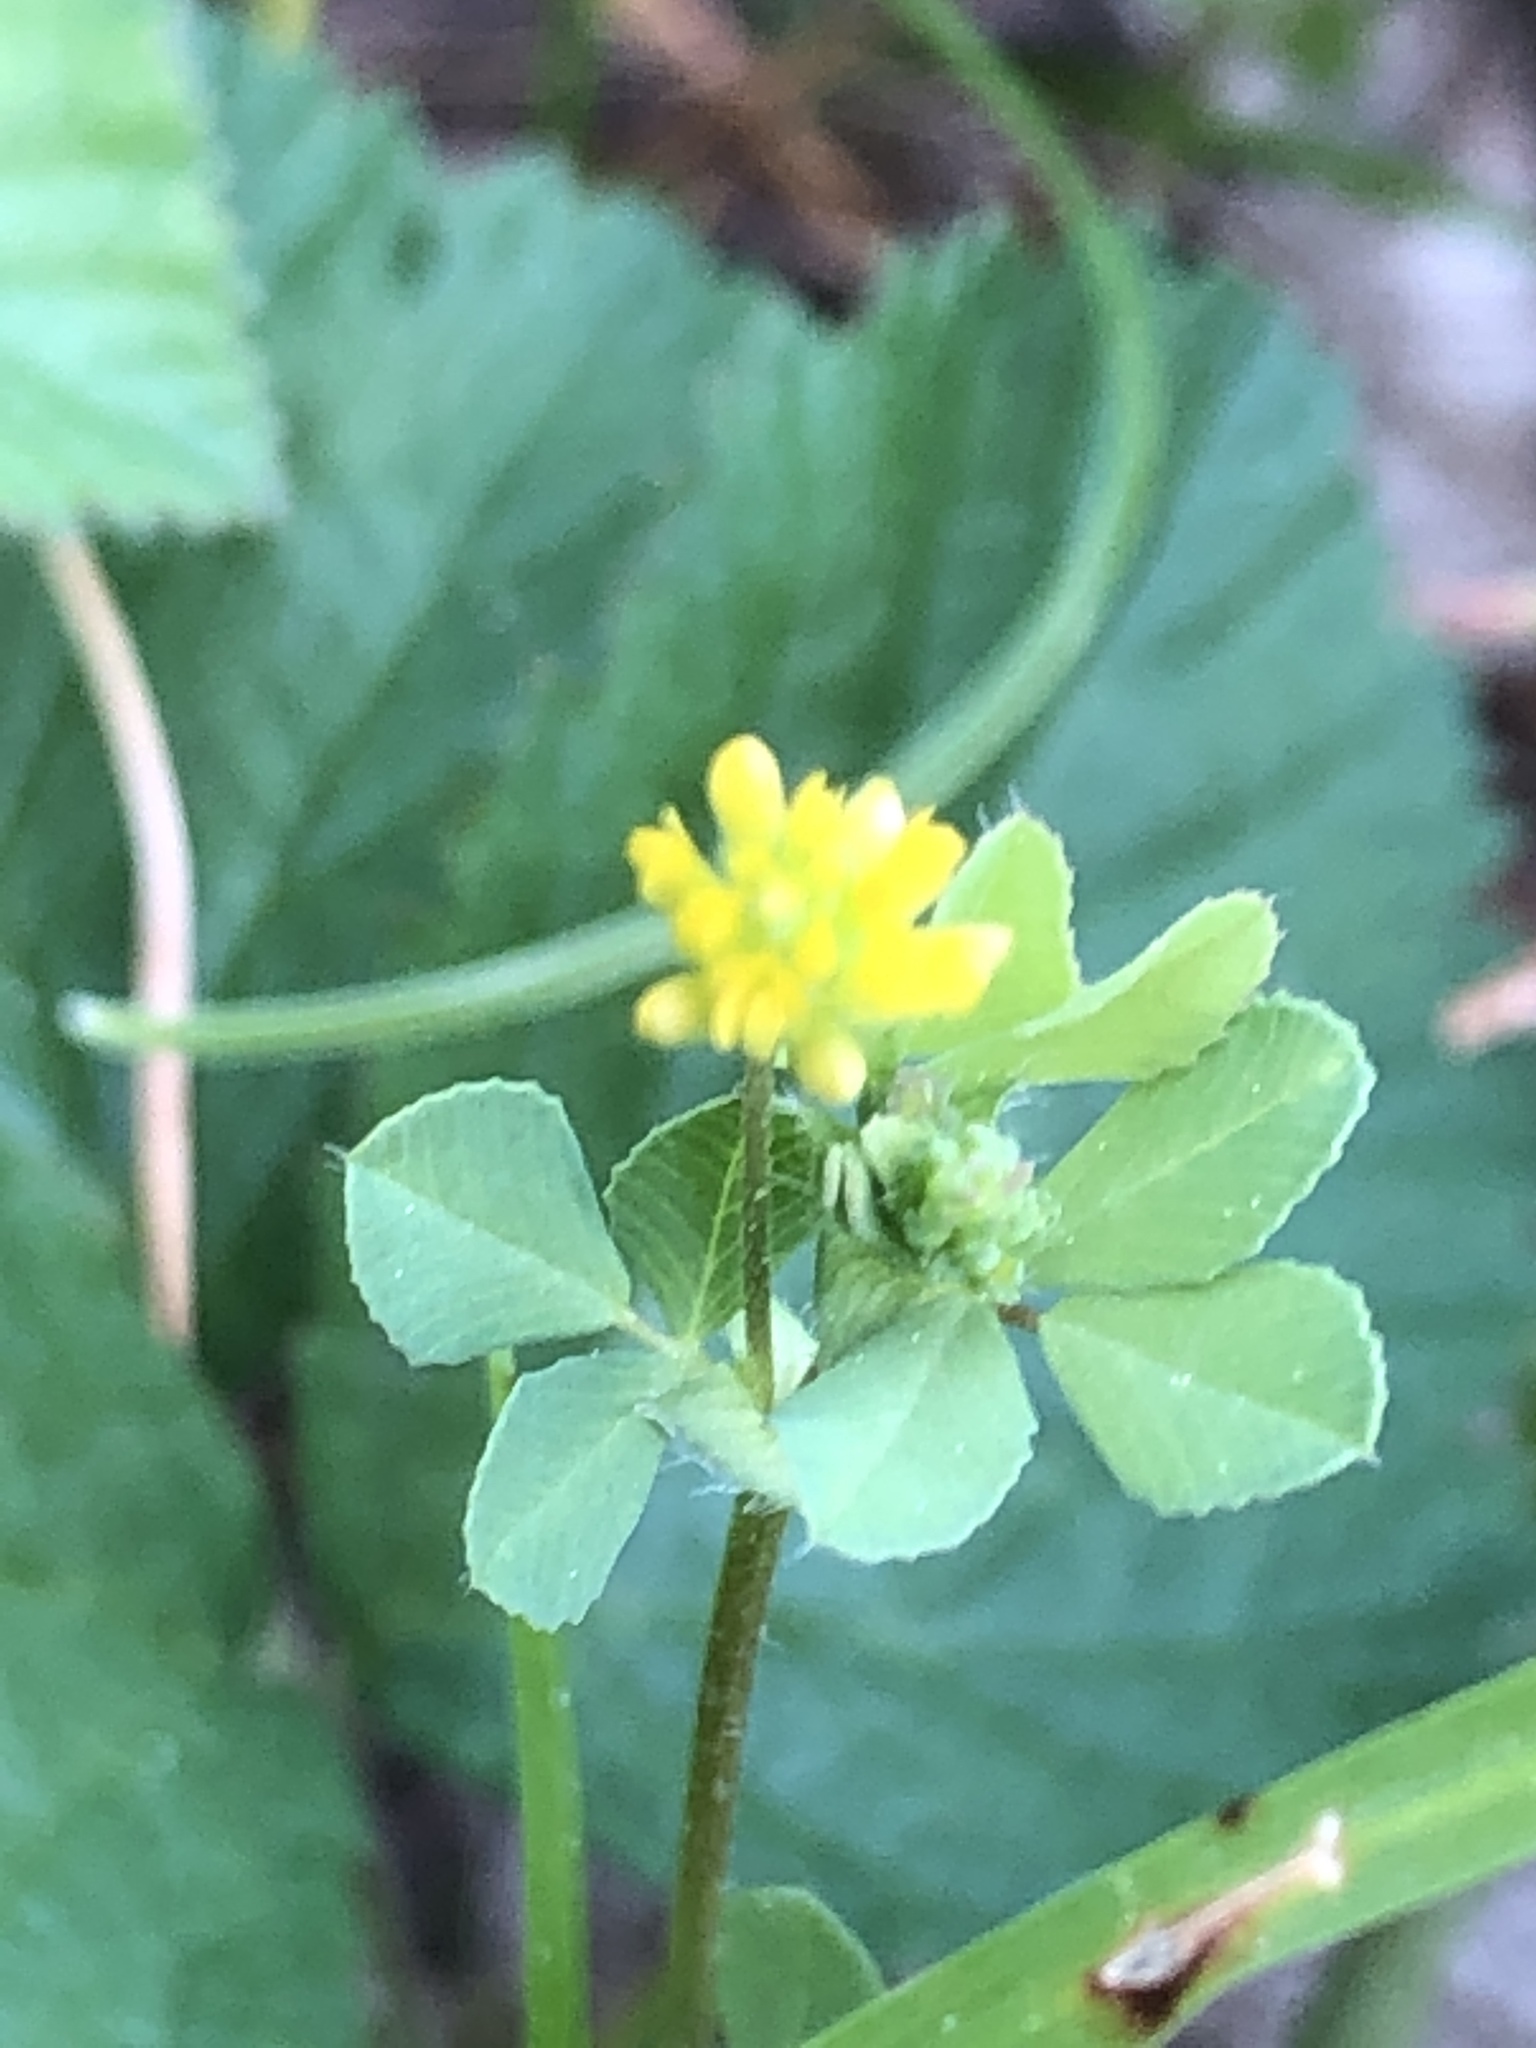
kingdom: Plantae
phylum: Tracheophyta
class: Magnoliopsida
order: Fabales
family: Fabaceae
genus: Medicago
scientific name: Medicago lupulina
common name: Black medick
